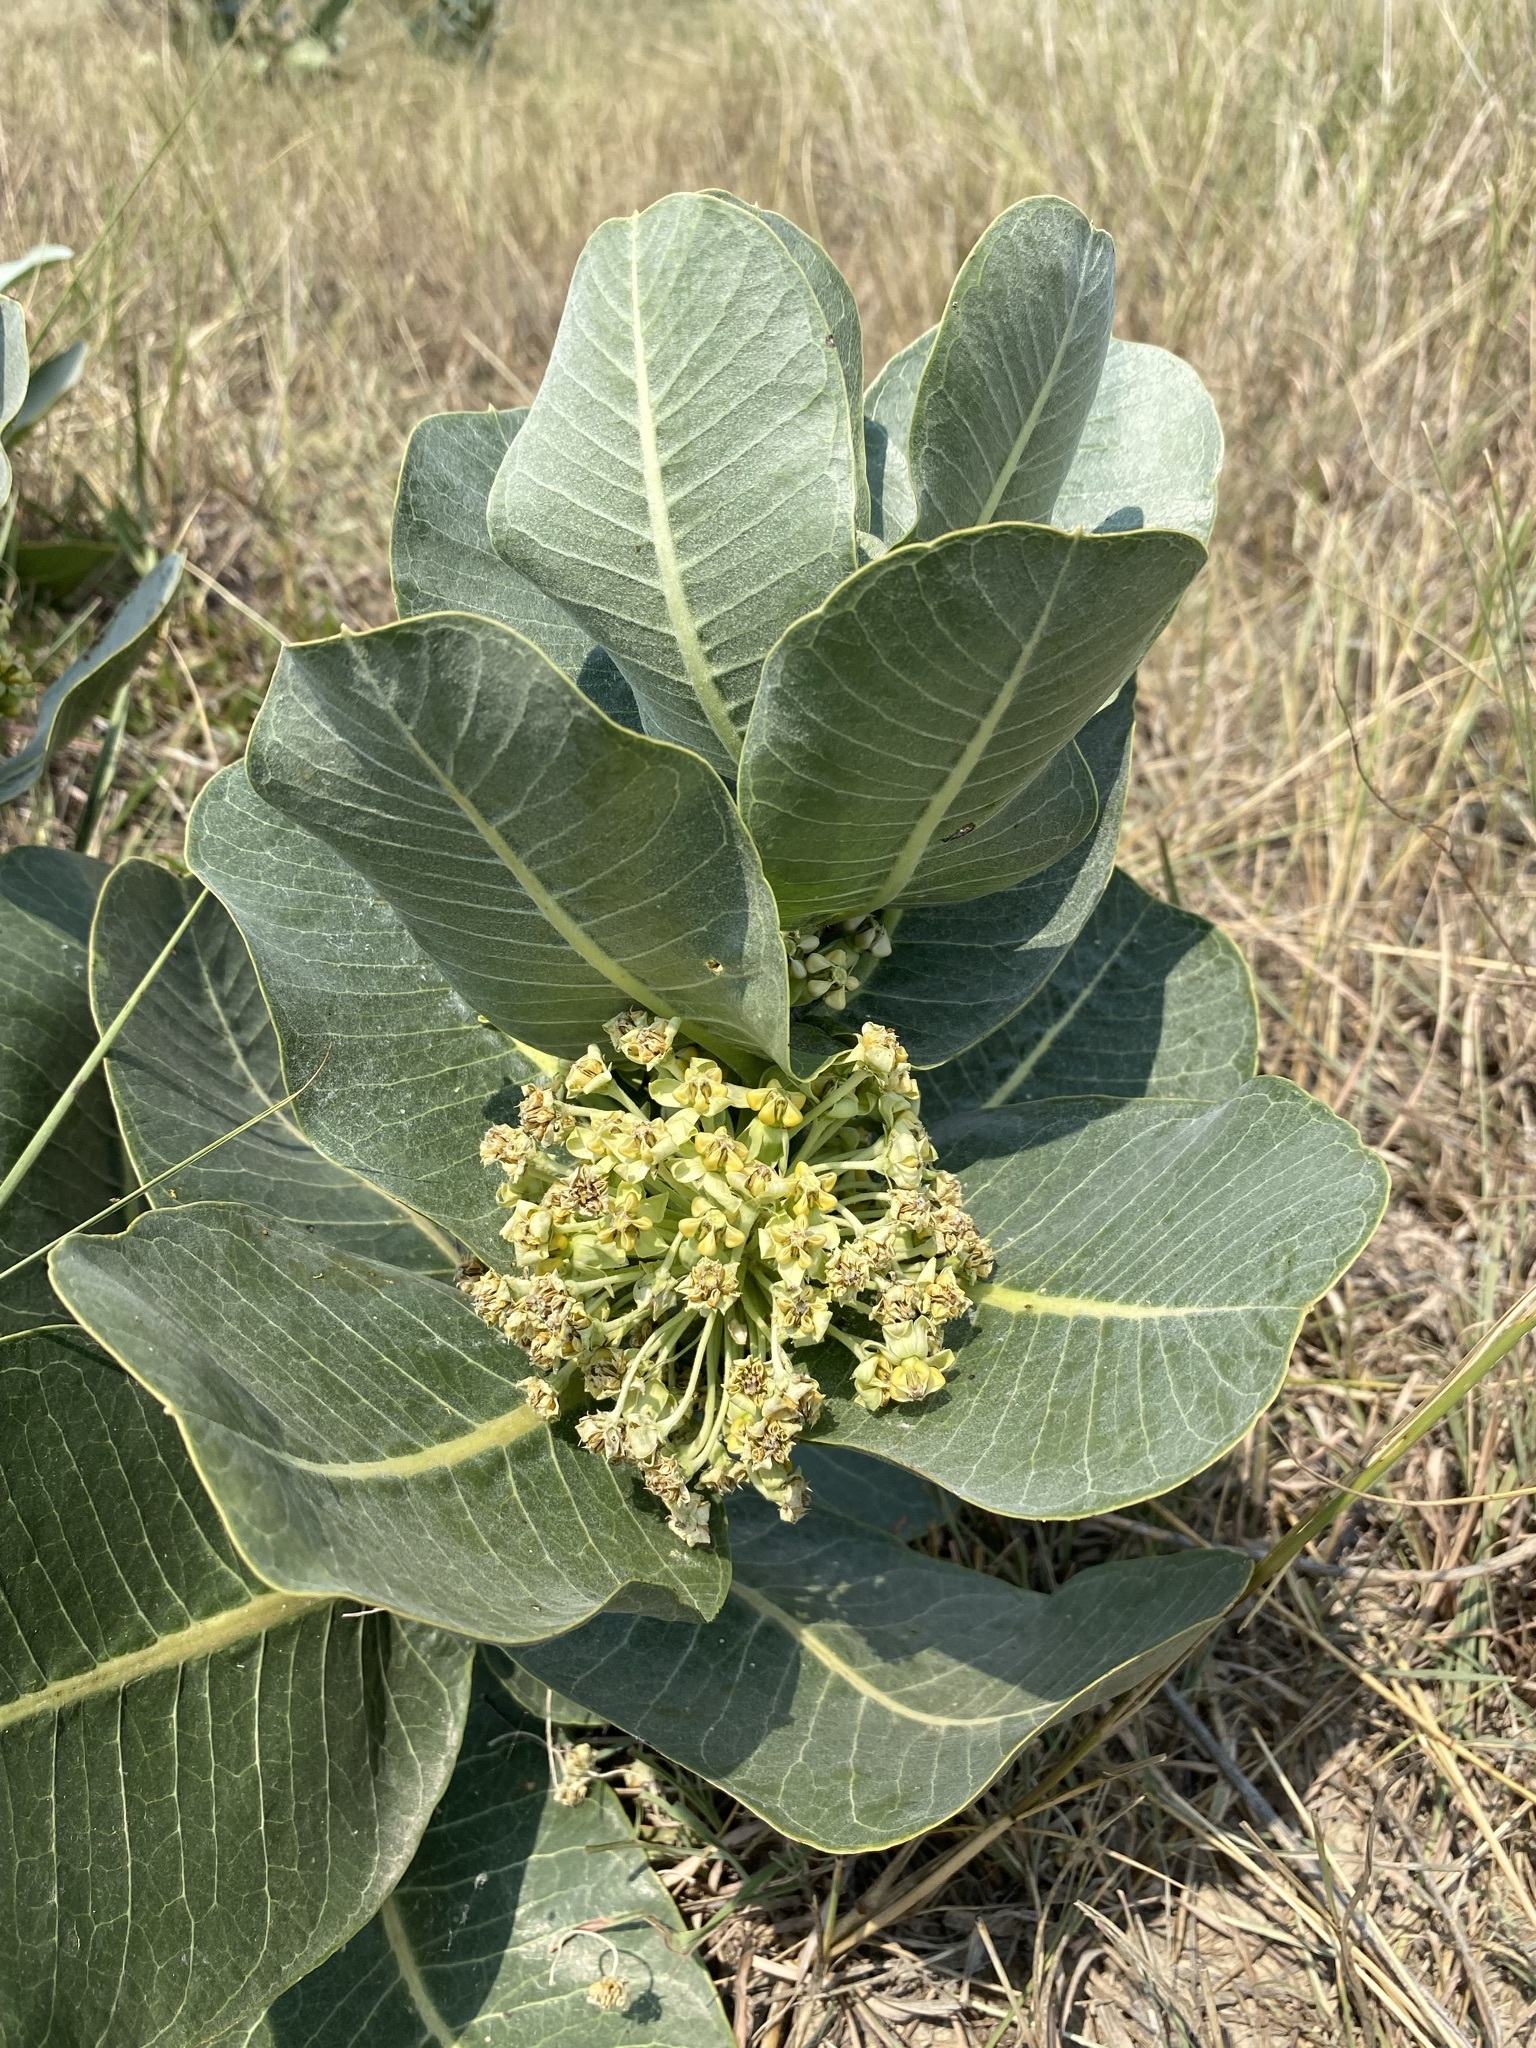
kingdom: Plantae
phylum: Tracheophyta
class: Magnoliopsida
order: Gentianales
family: Apocynaceae
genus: Asclepias
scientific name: Asclepias latifolia
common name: Broadleaf milkweed
